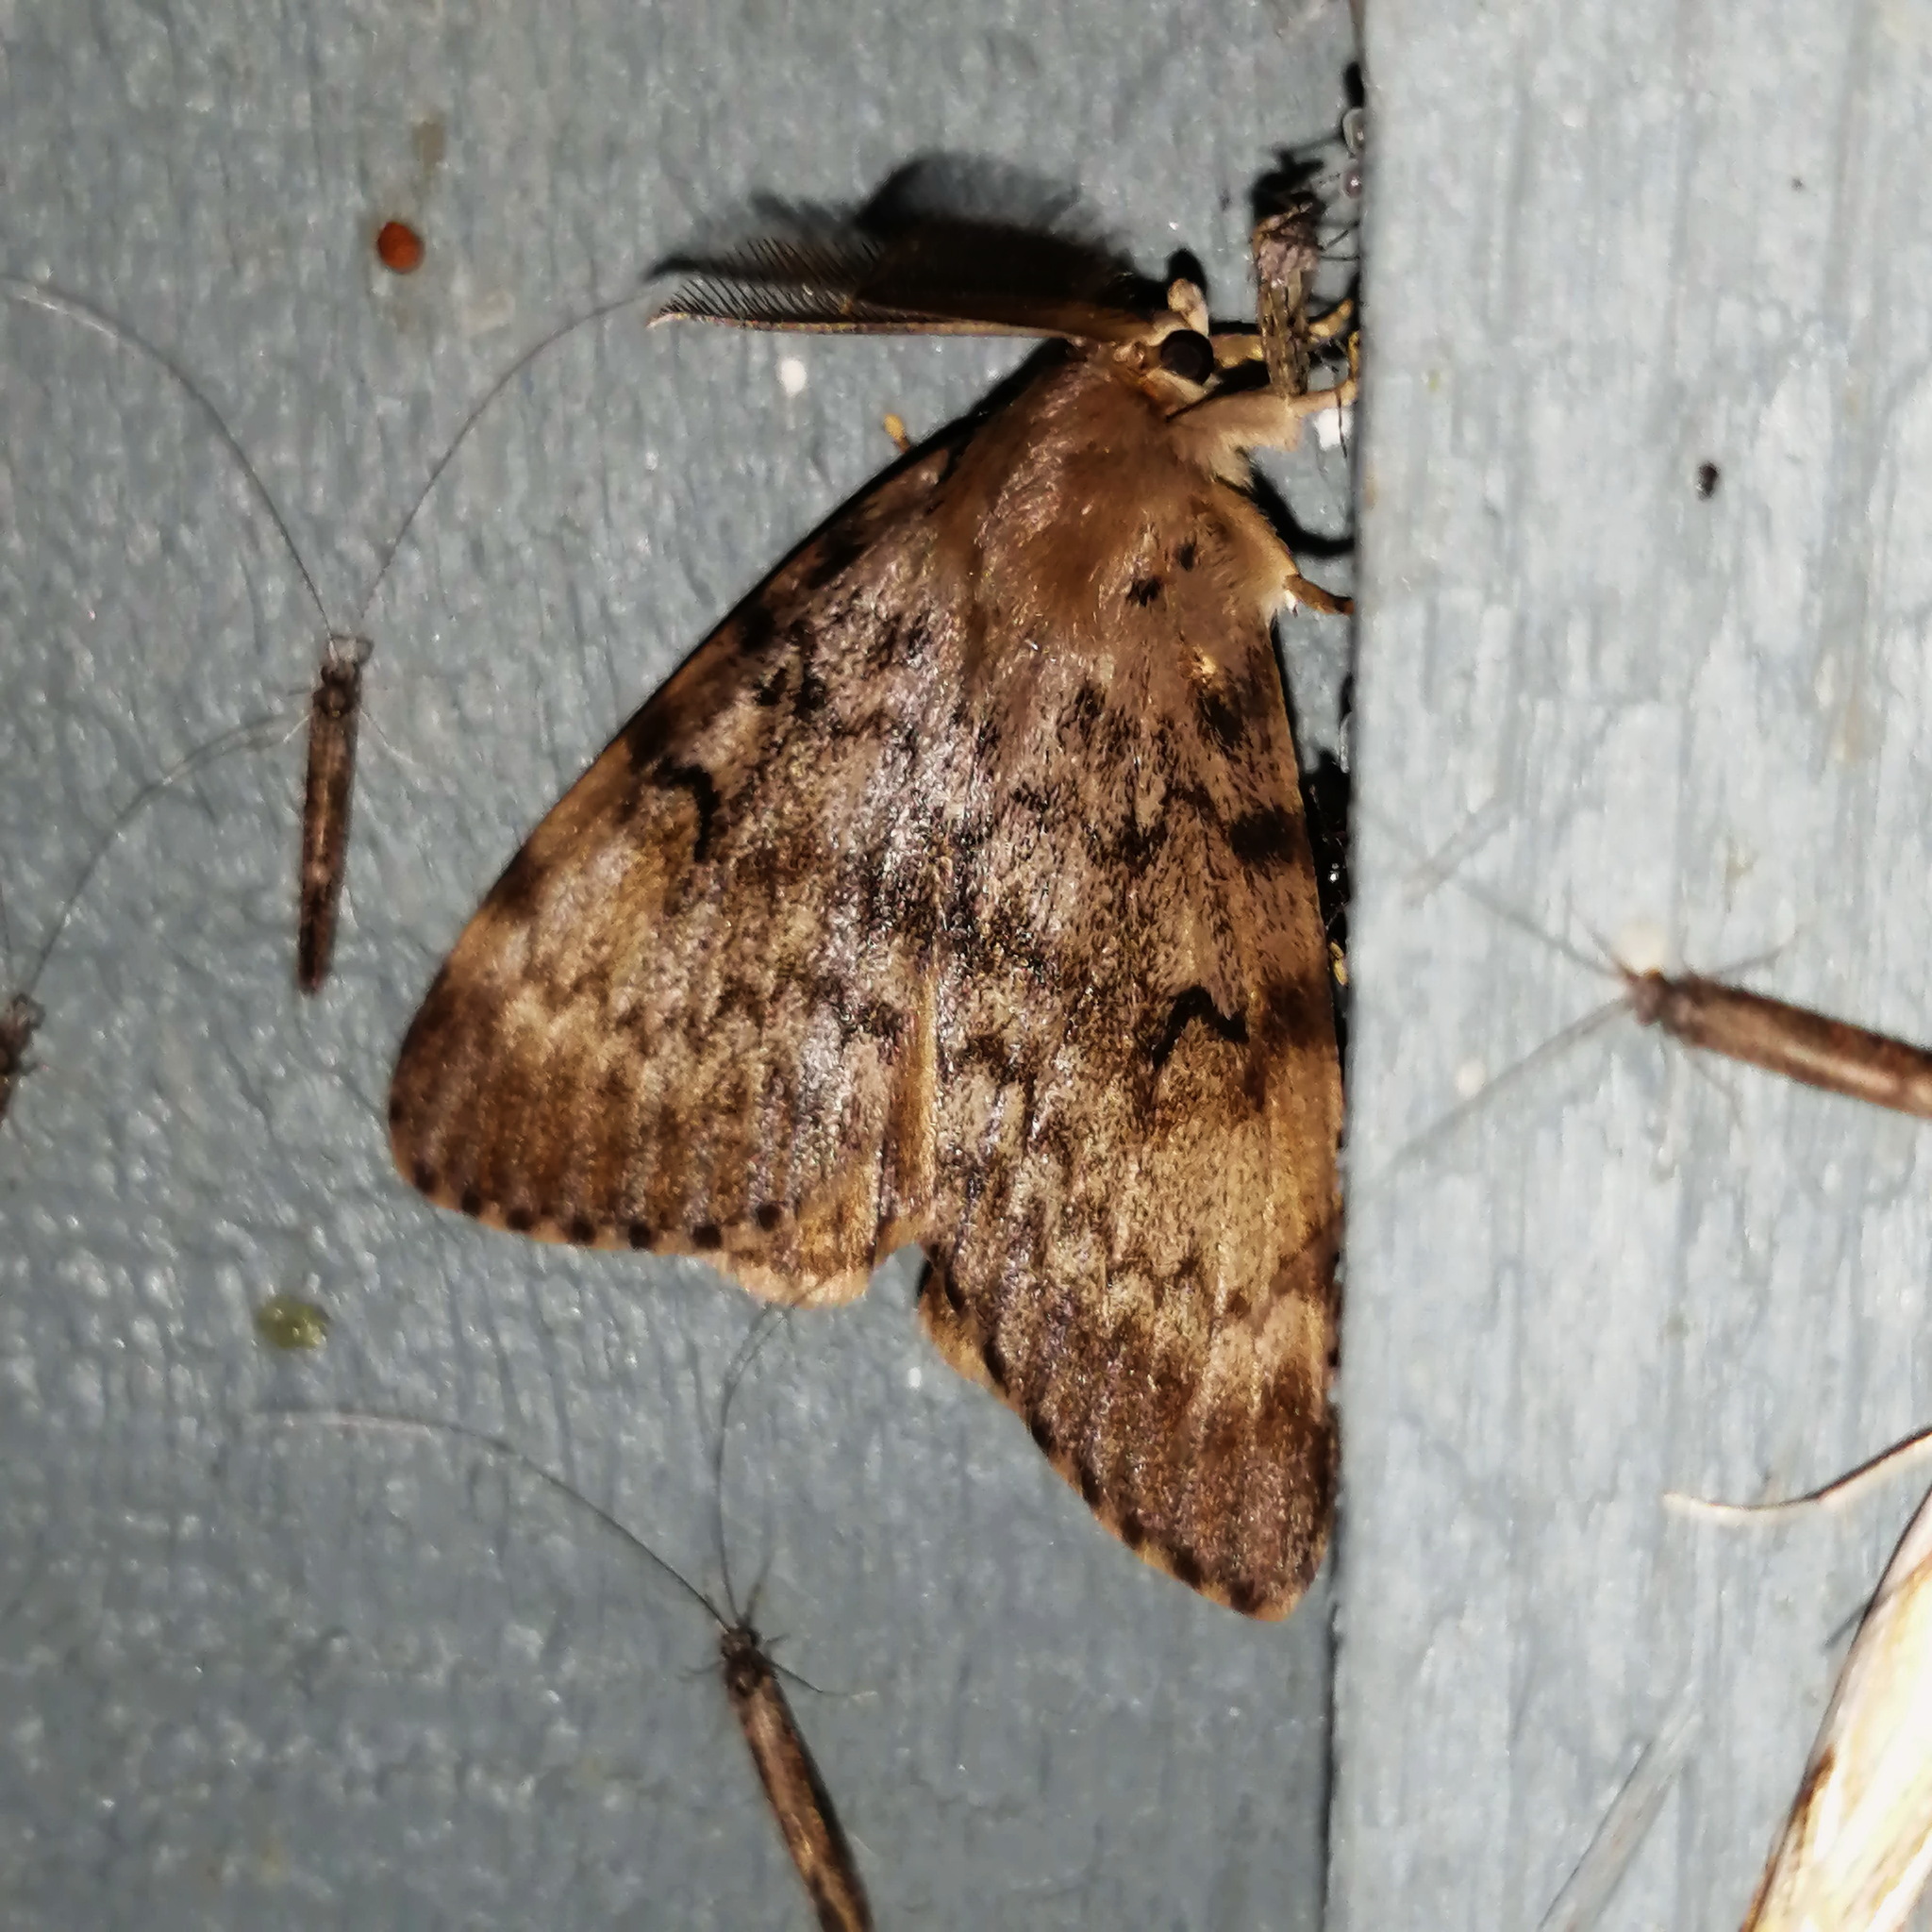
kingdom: Animalia
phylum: Arthropoda
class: Insecta
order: Lepidoptera
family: Erebidae
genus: Lymantria
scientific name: Lymantria dispar
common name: Gypsy moth
